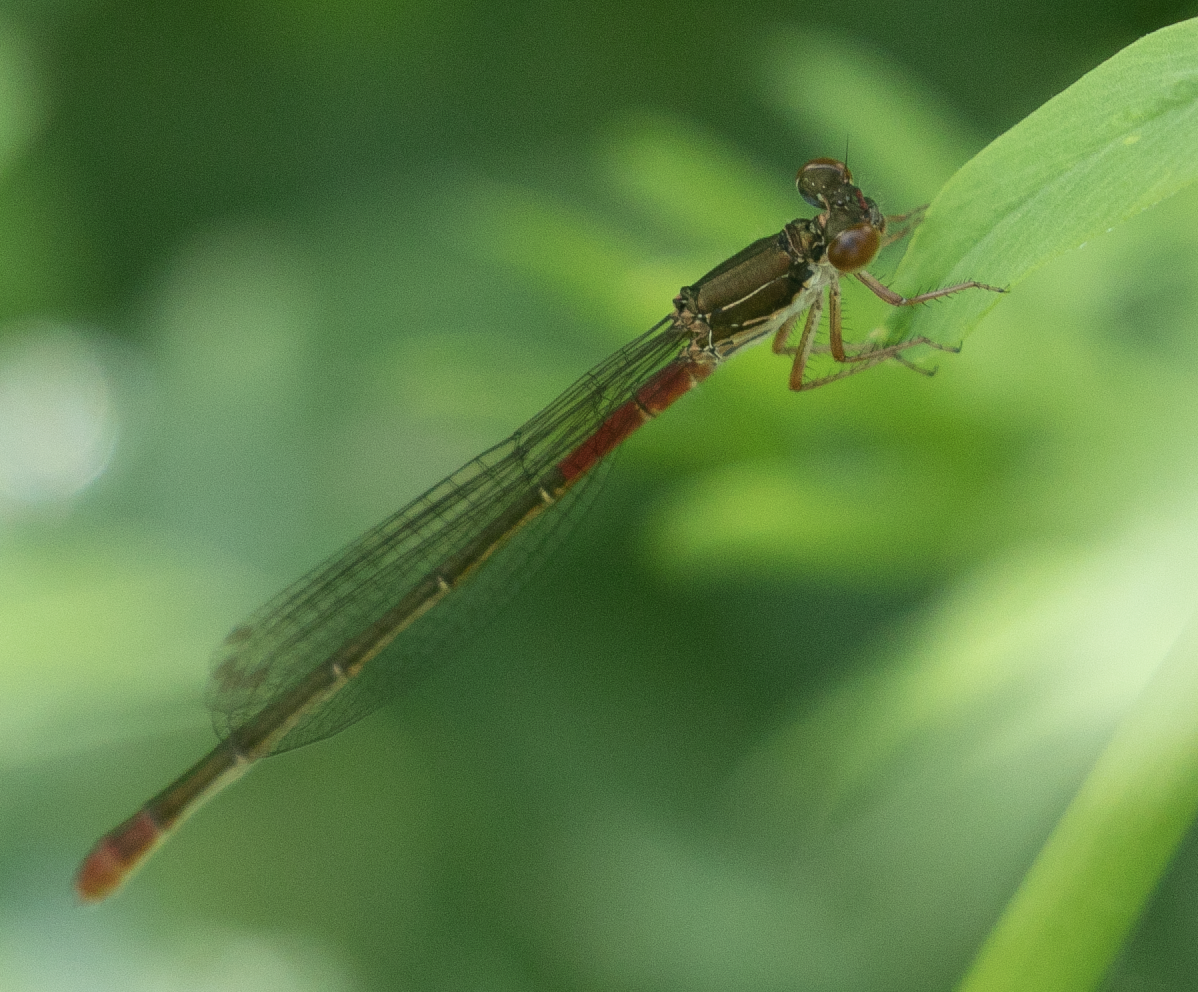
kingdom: Animalia
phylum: Arthropoda
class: Insecta
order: Odonata
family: Coenagrionidae
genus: Ceriagrion
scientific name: Ceriagrion tenellum
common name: Small red damselfly
